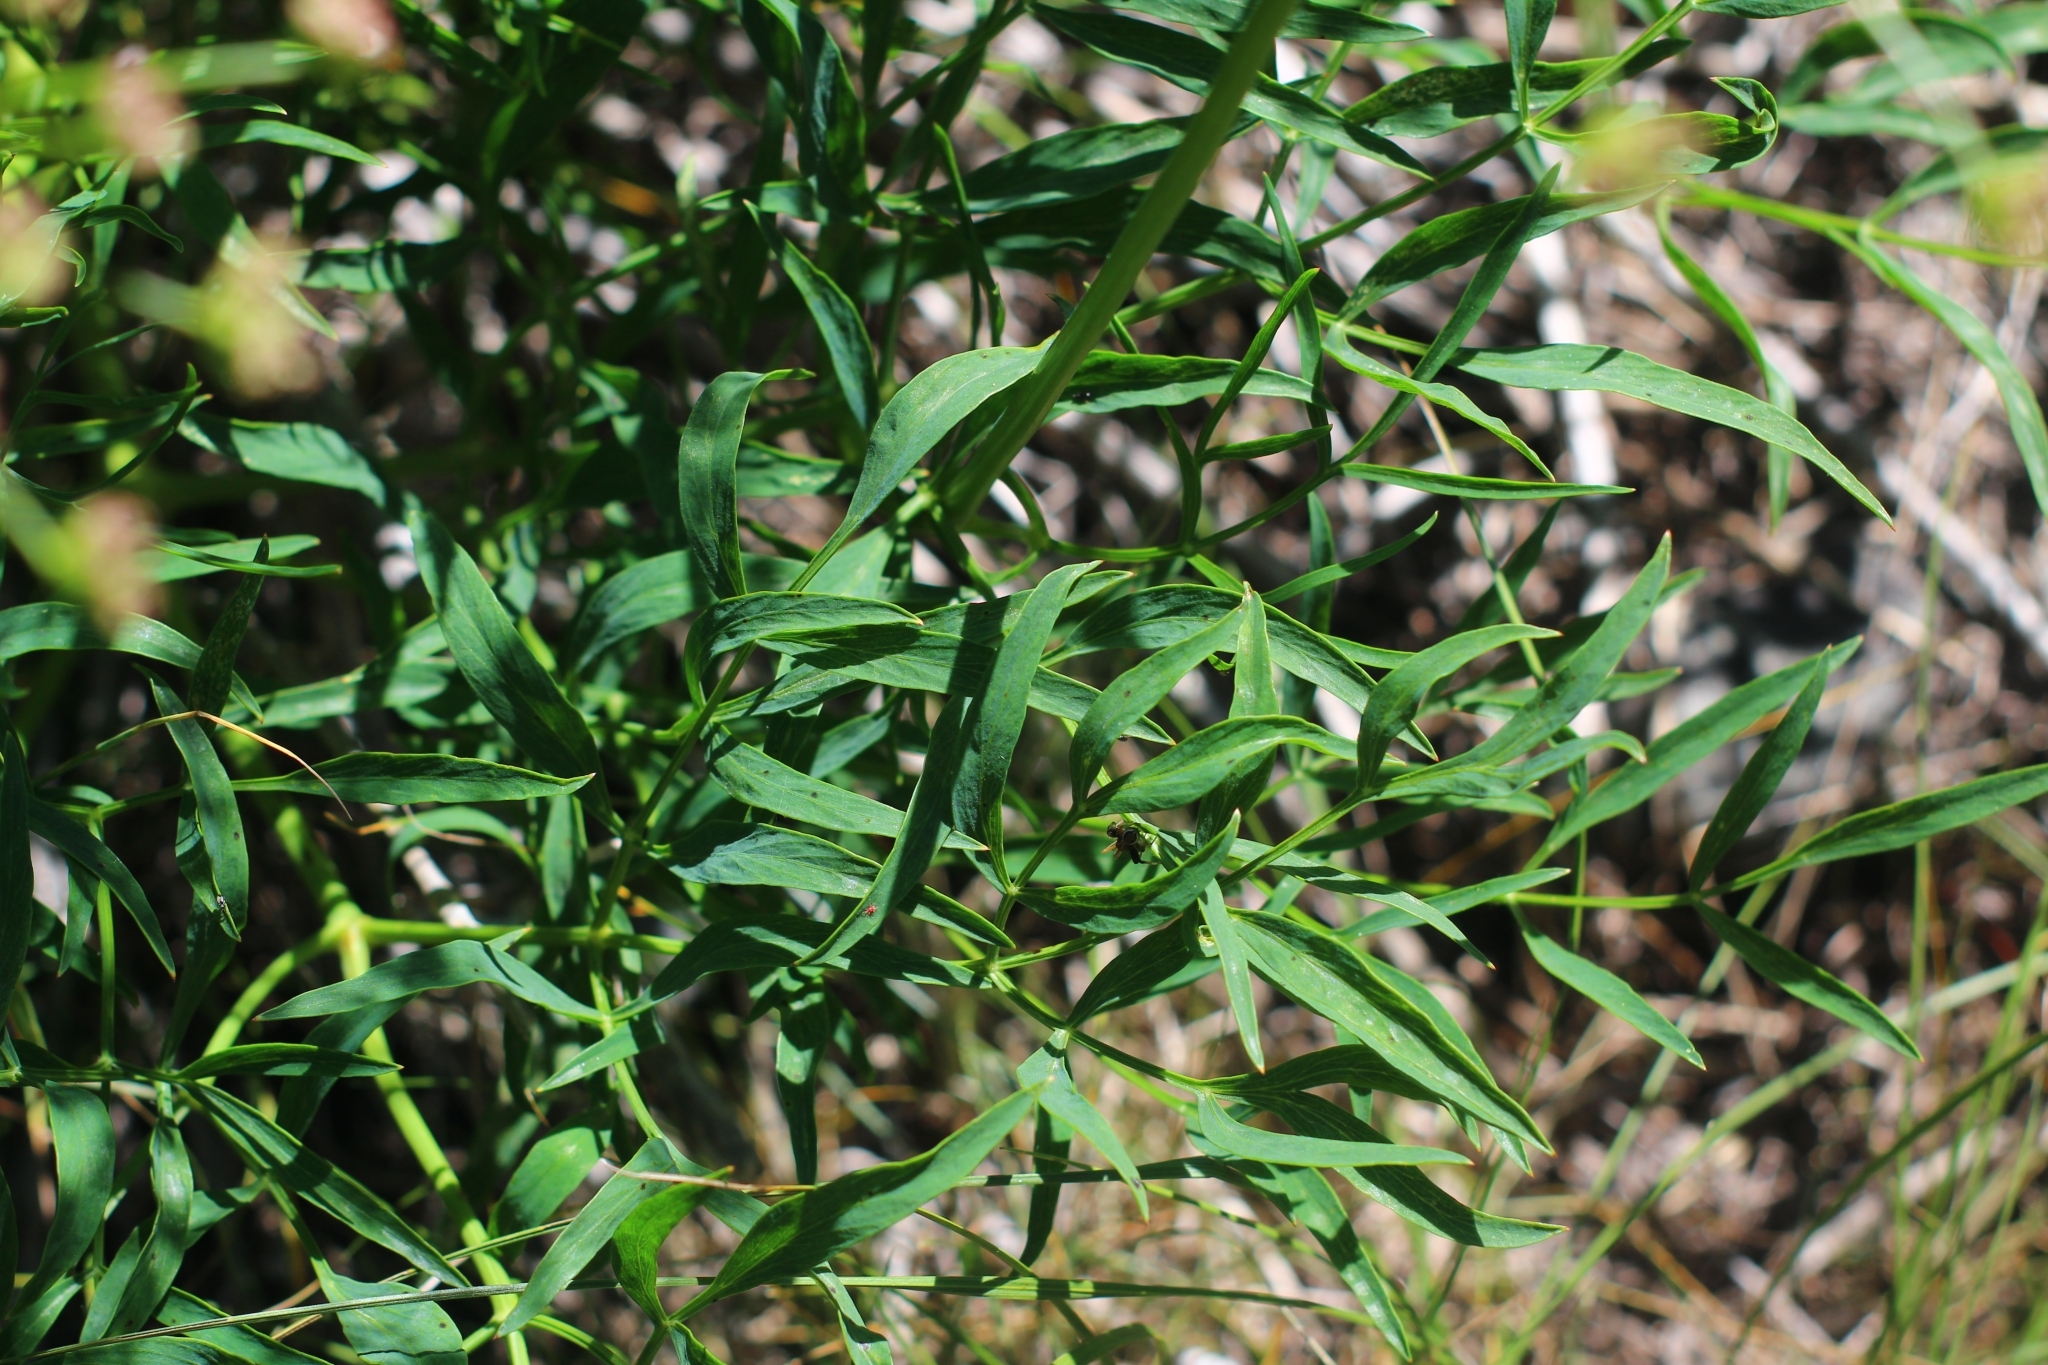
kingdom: Plantae
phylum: Tracheophyta
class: Magnoliopsida
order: Apiales
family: Apiaceae
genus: Siler
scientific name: Siler montanum
